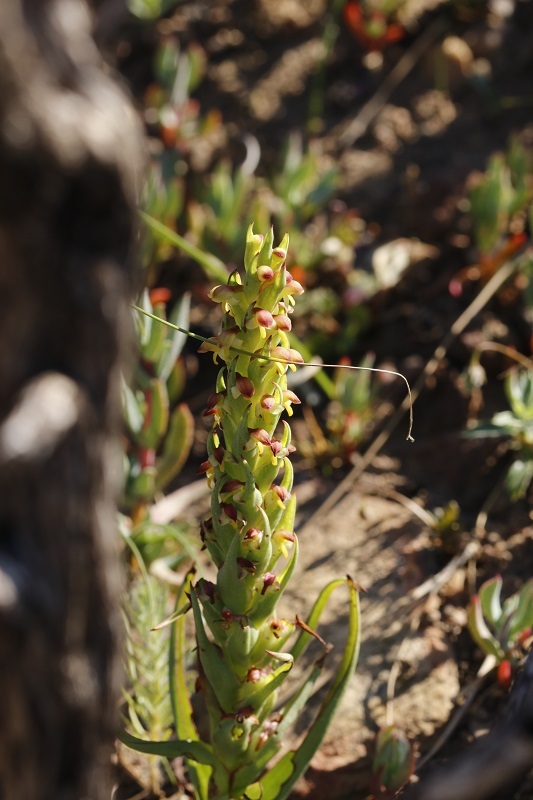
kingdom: Plantae
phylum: Tracheophyta
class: Liliopsida
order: Asparagales
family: Orchidaceae
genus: Disa
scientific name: Disa bracteata
